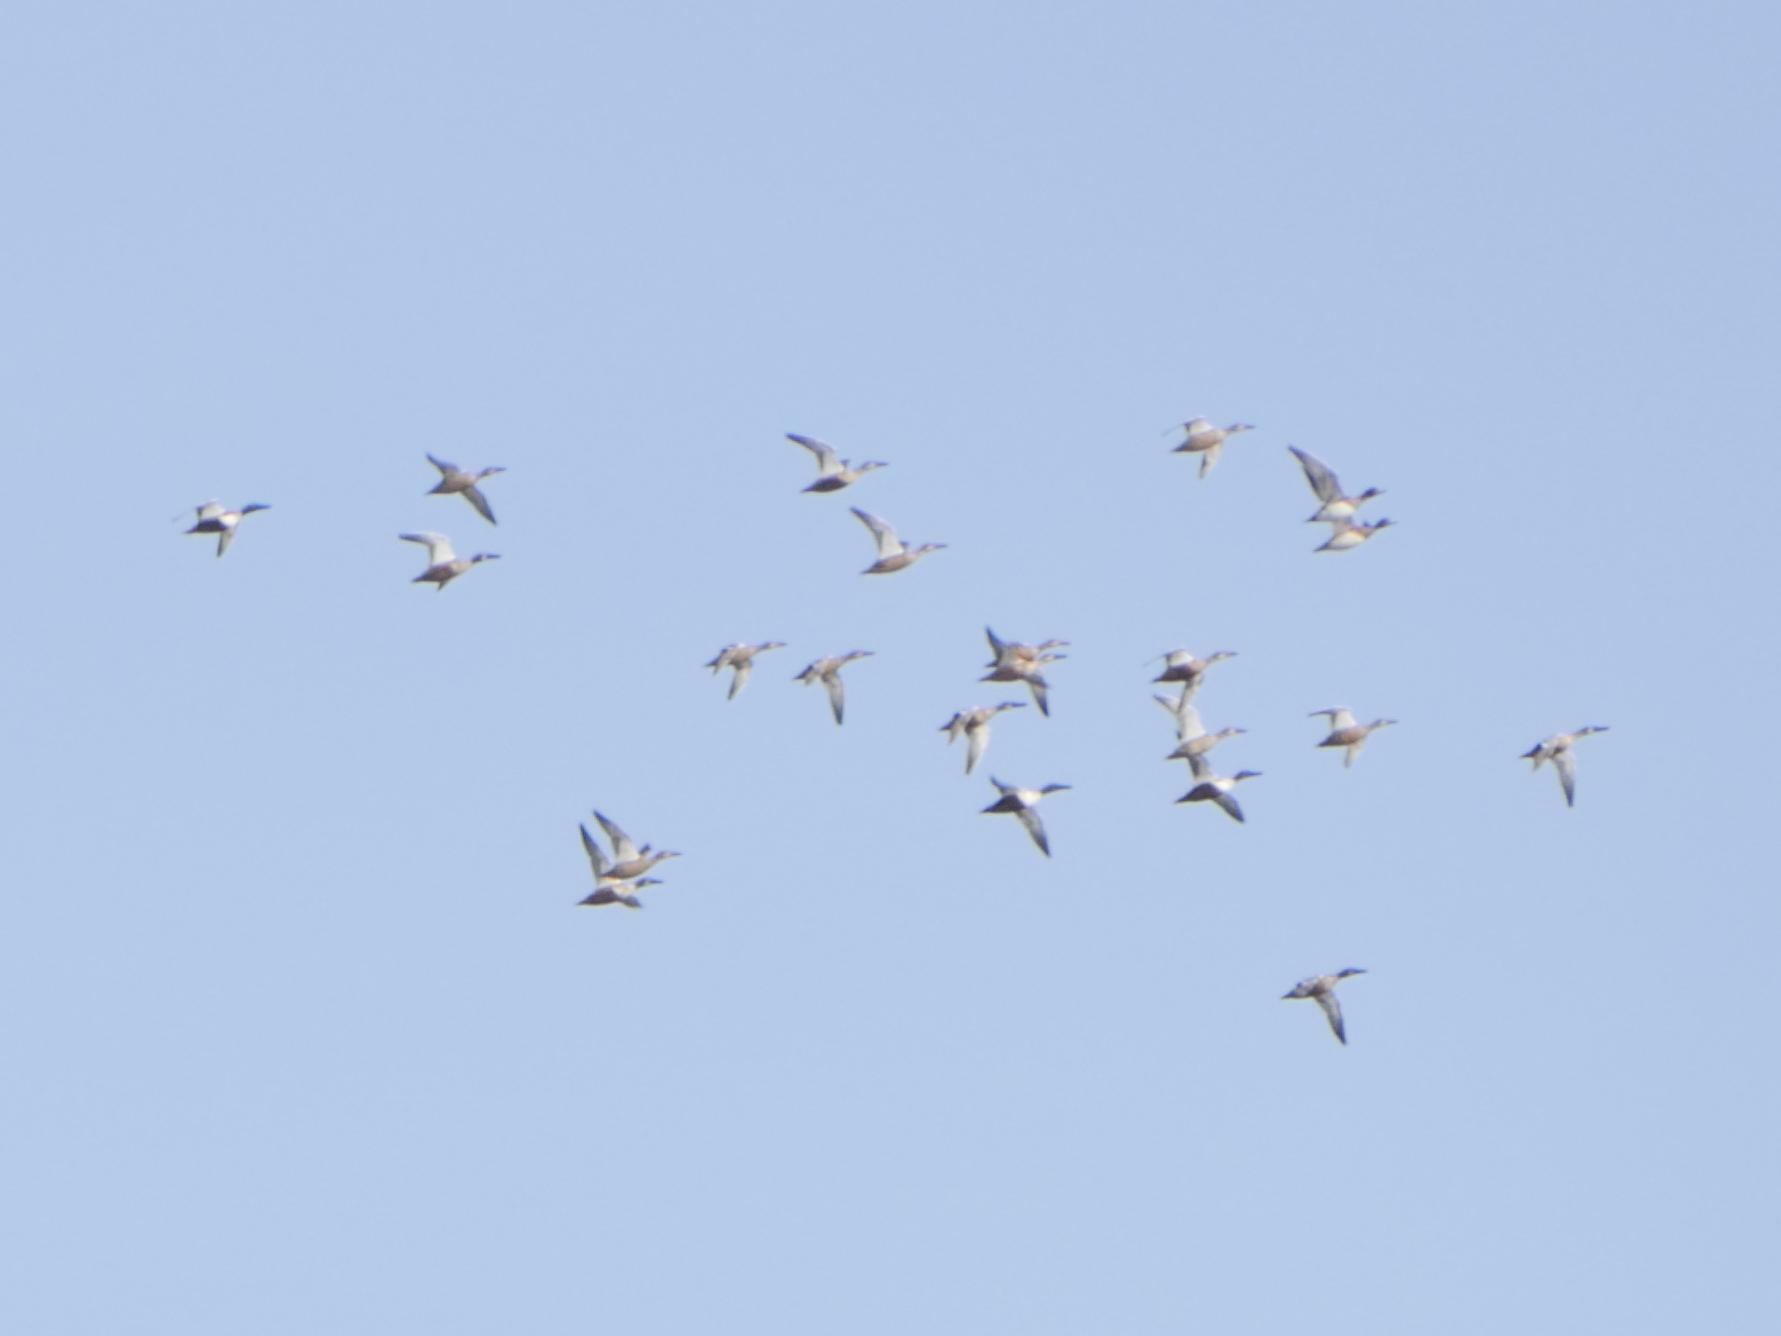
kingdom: Animalia
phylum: Chordata
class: Aves
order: Anseriformes
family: Anatidae
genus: Spatula
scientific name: Spatula clypeata
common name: Northern shoveler
